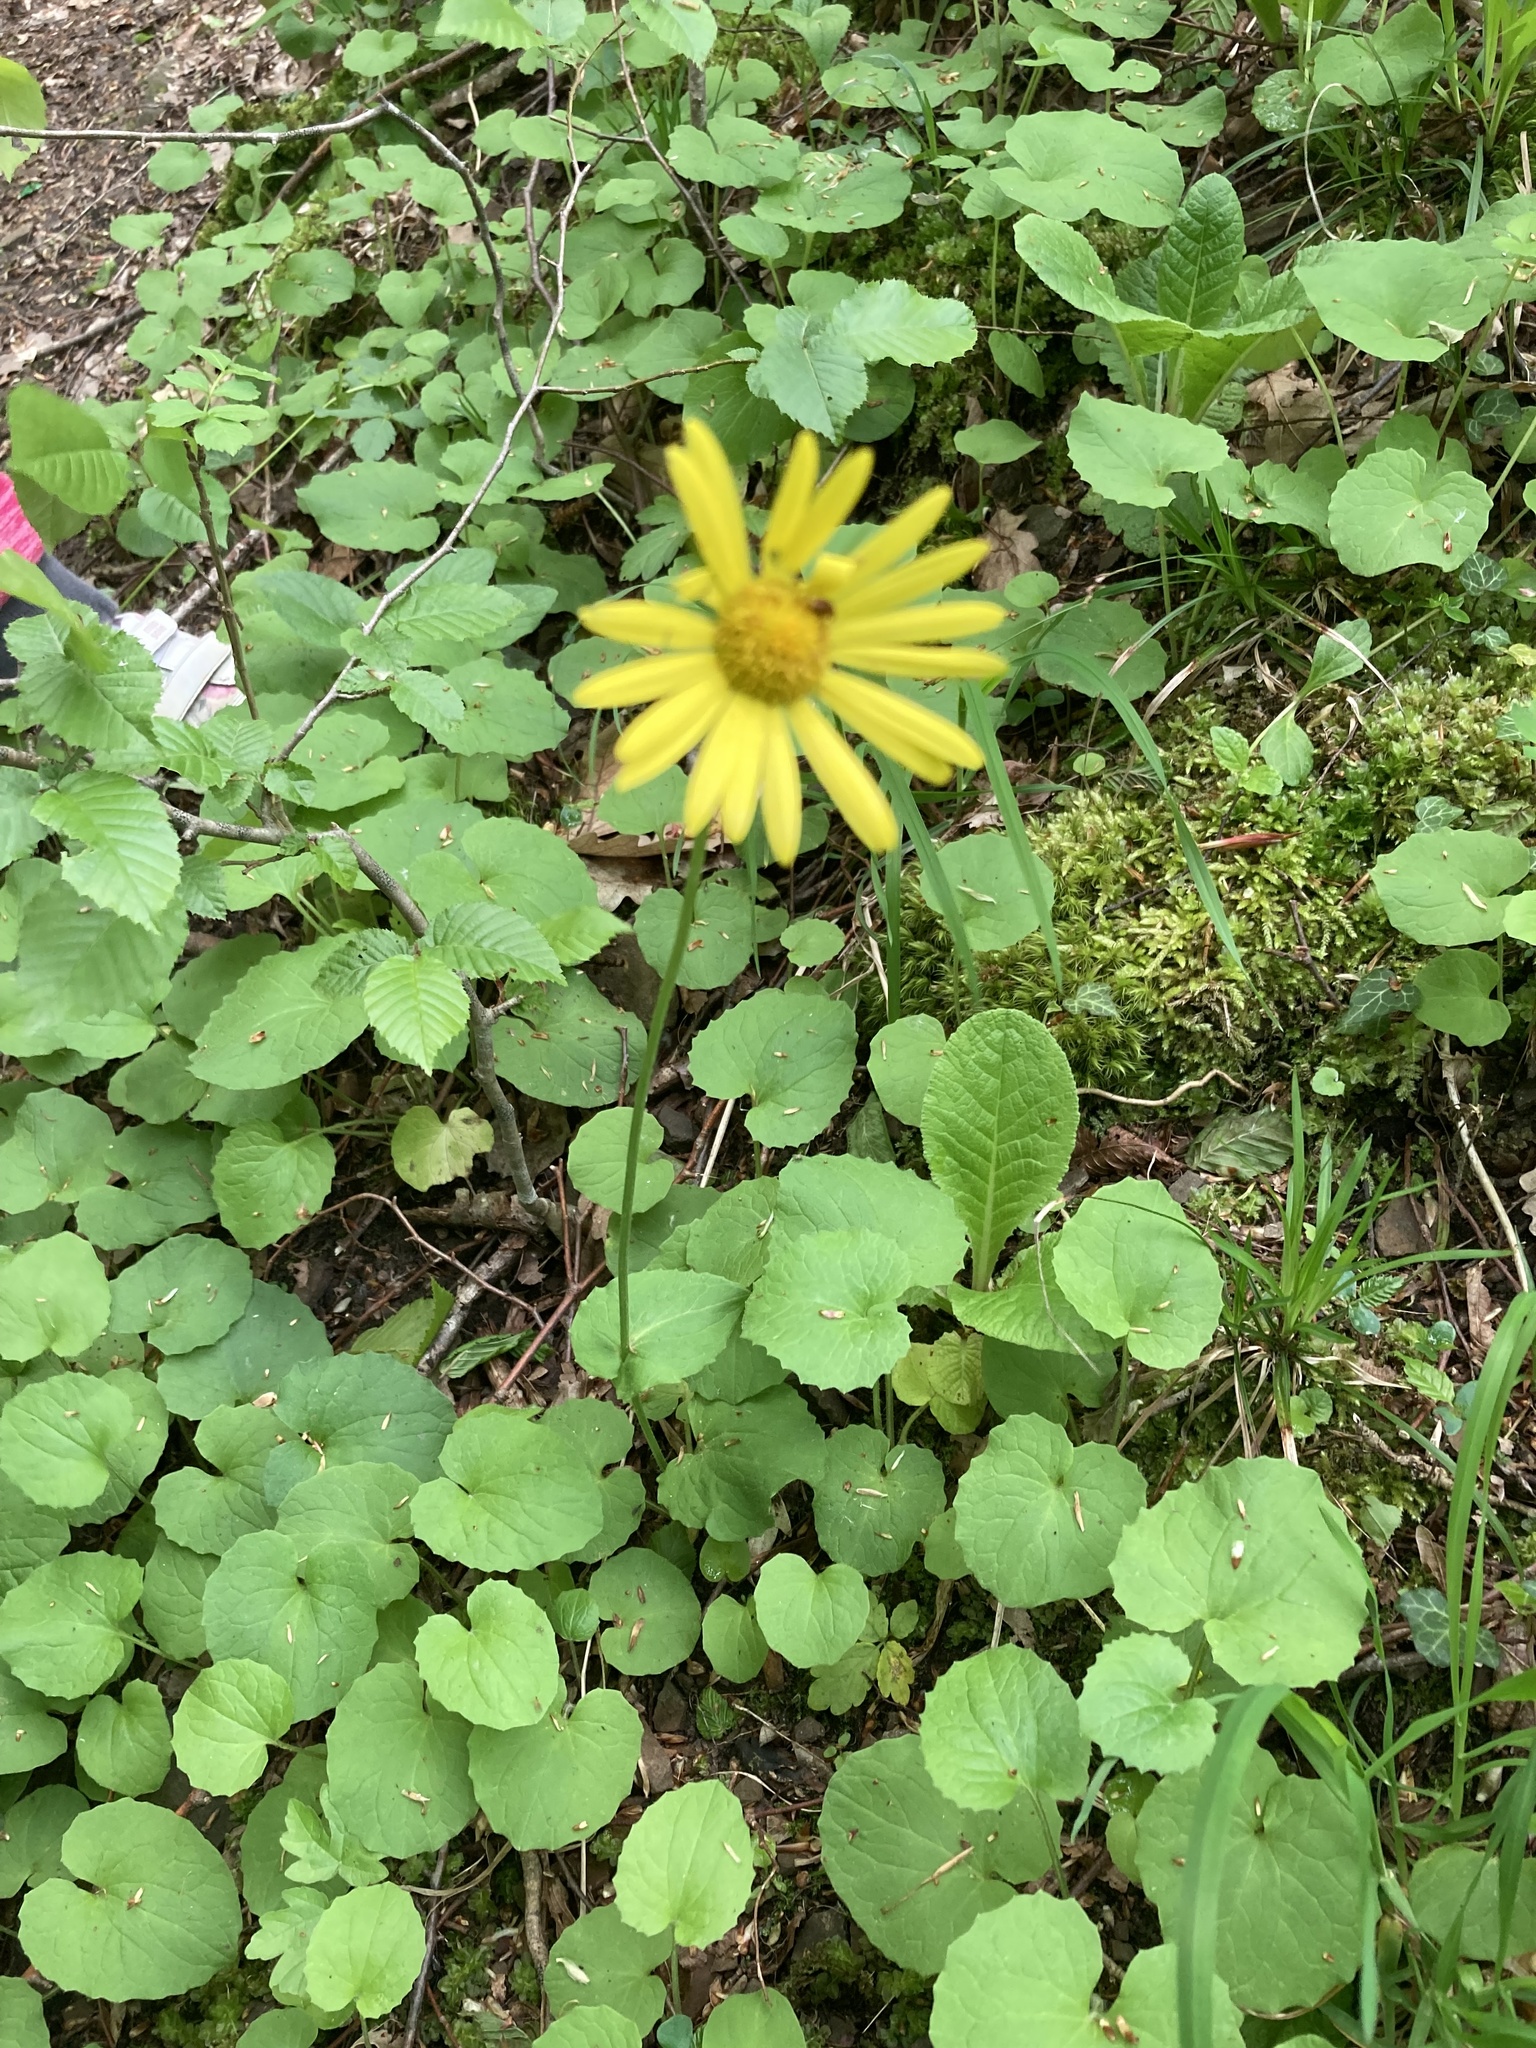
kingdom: Plantae
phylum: Tracheophyta
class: Magnoliopsida
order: Asterales
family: Asteraceae
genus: Doronicum
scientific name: Doronicum
